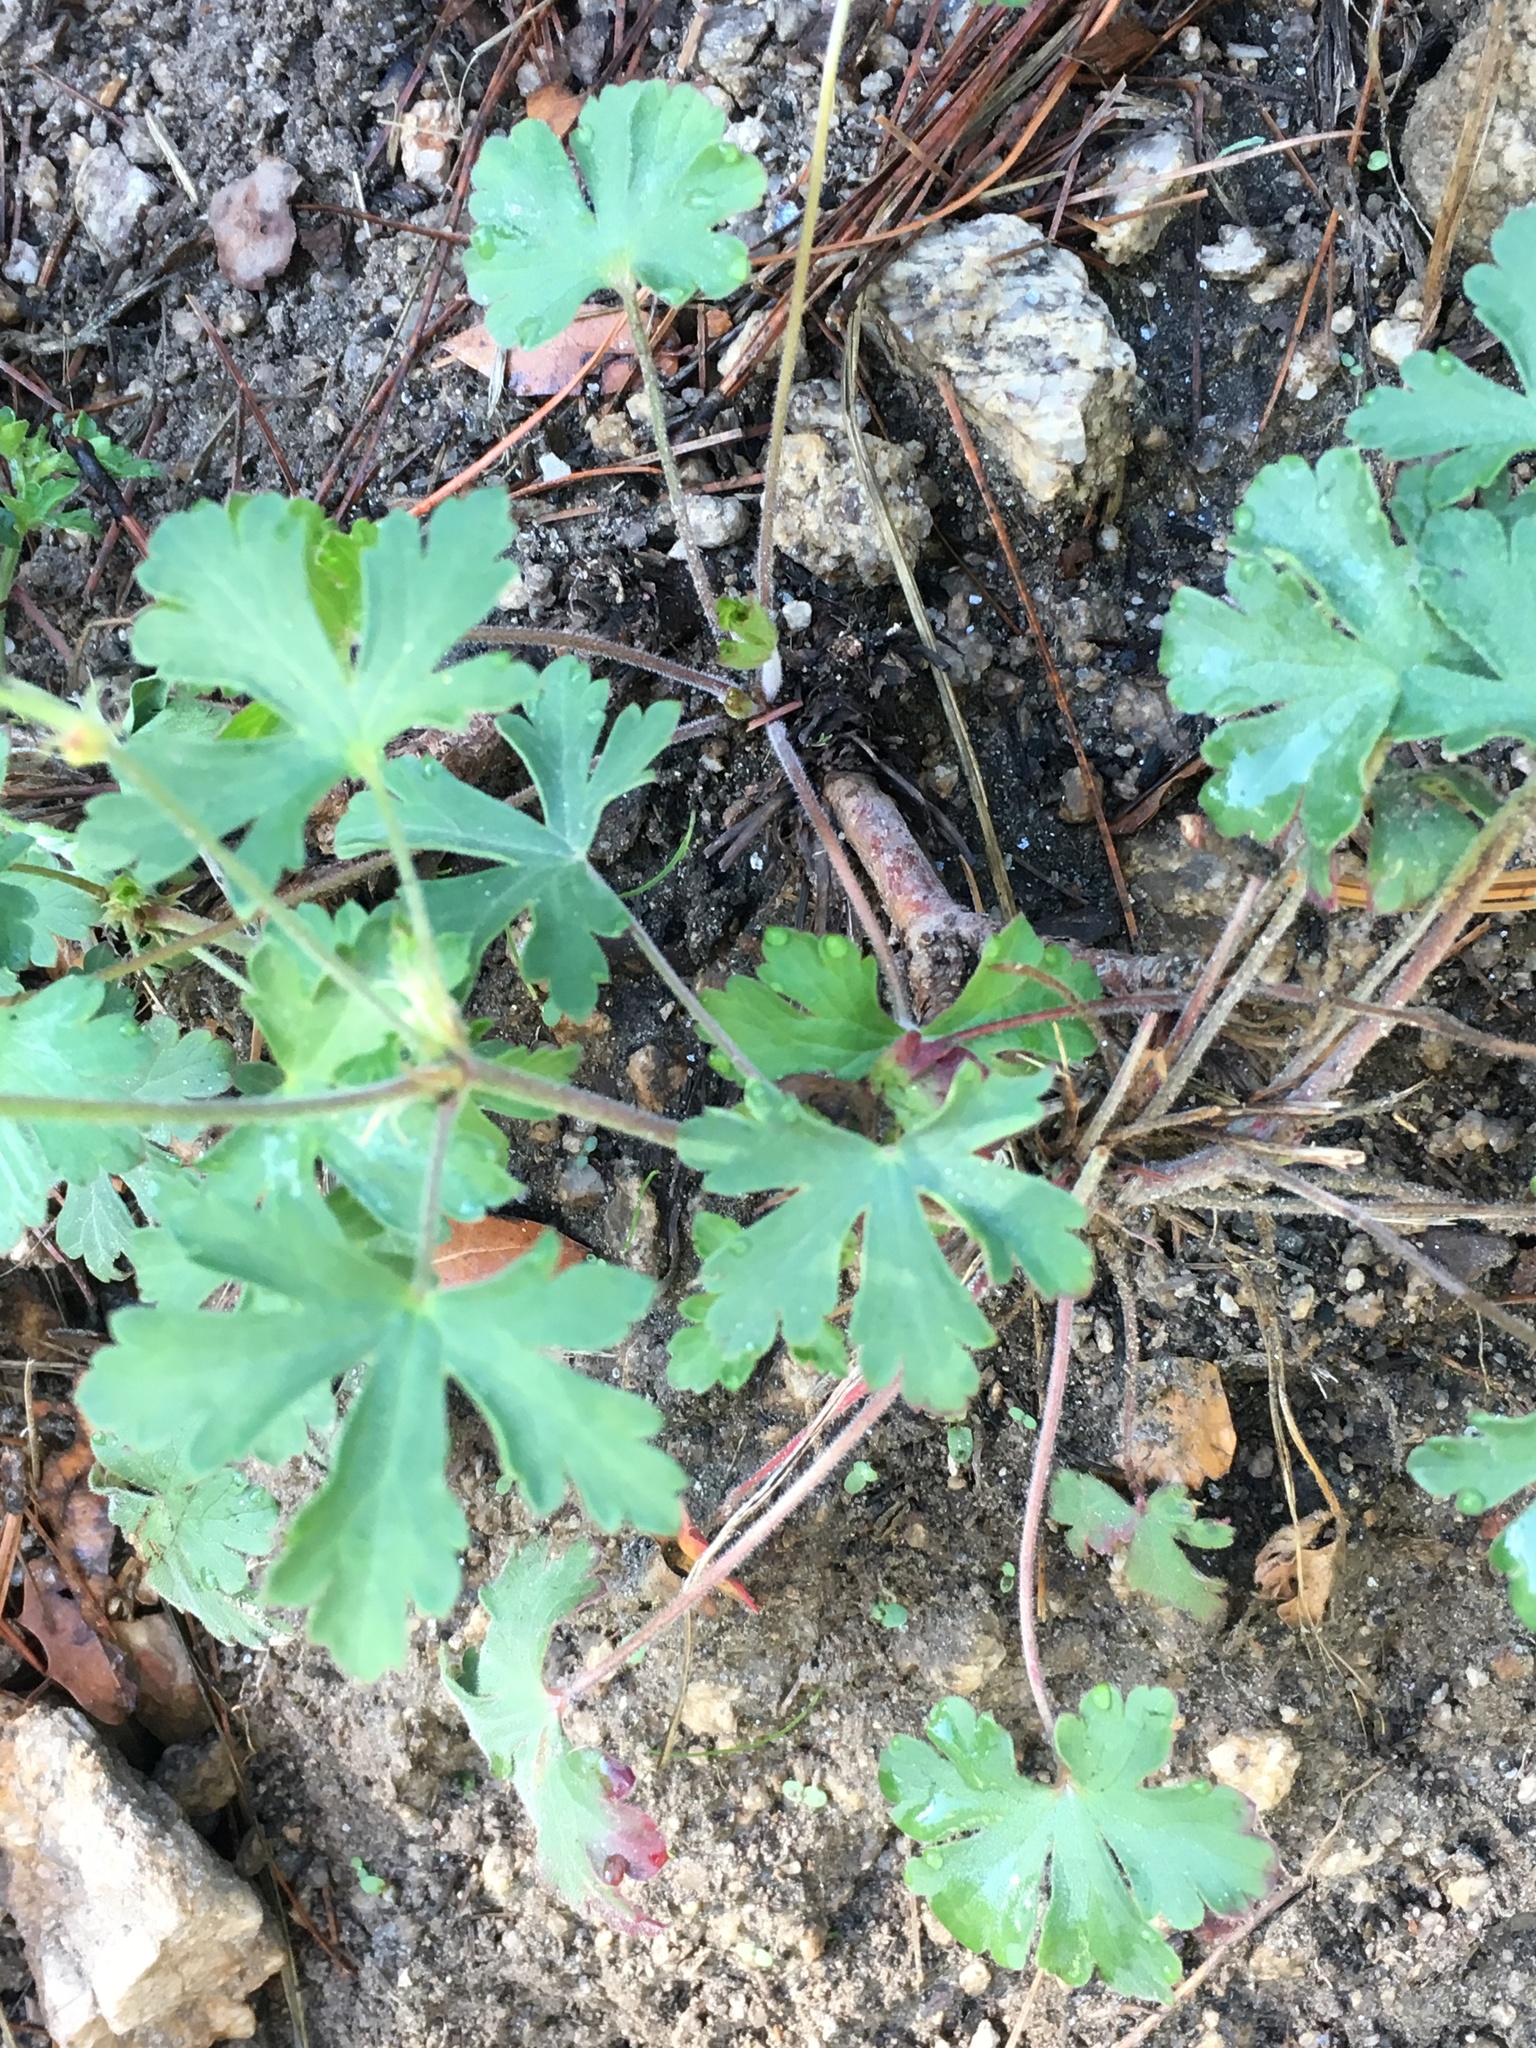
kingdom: Plantae
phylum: Tracheophyta
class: Magnoliopsida
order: Geraniales
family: Geraniaceae
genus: Geranium
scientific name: Geranium caespitosum
